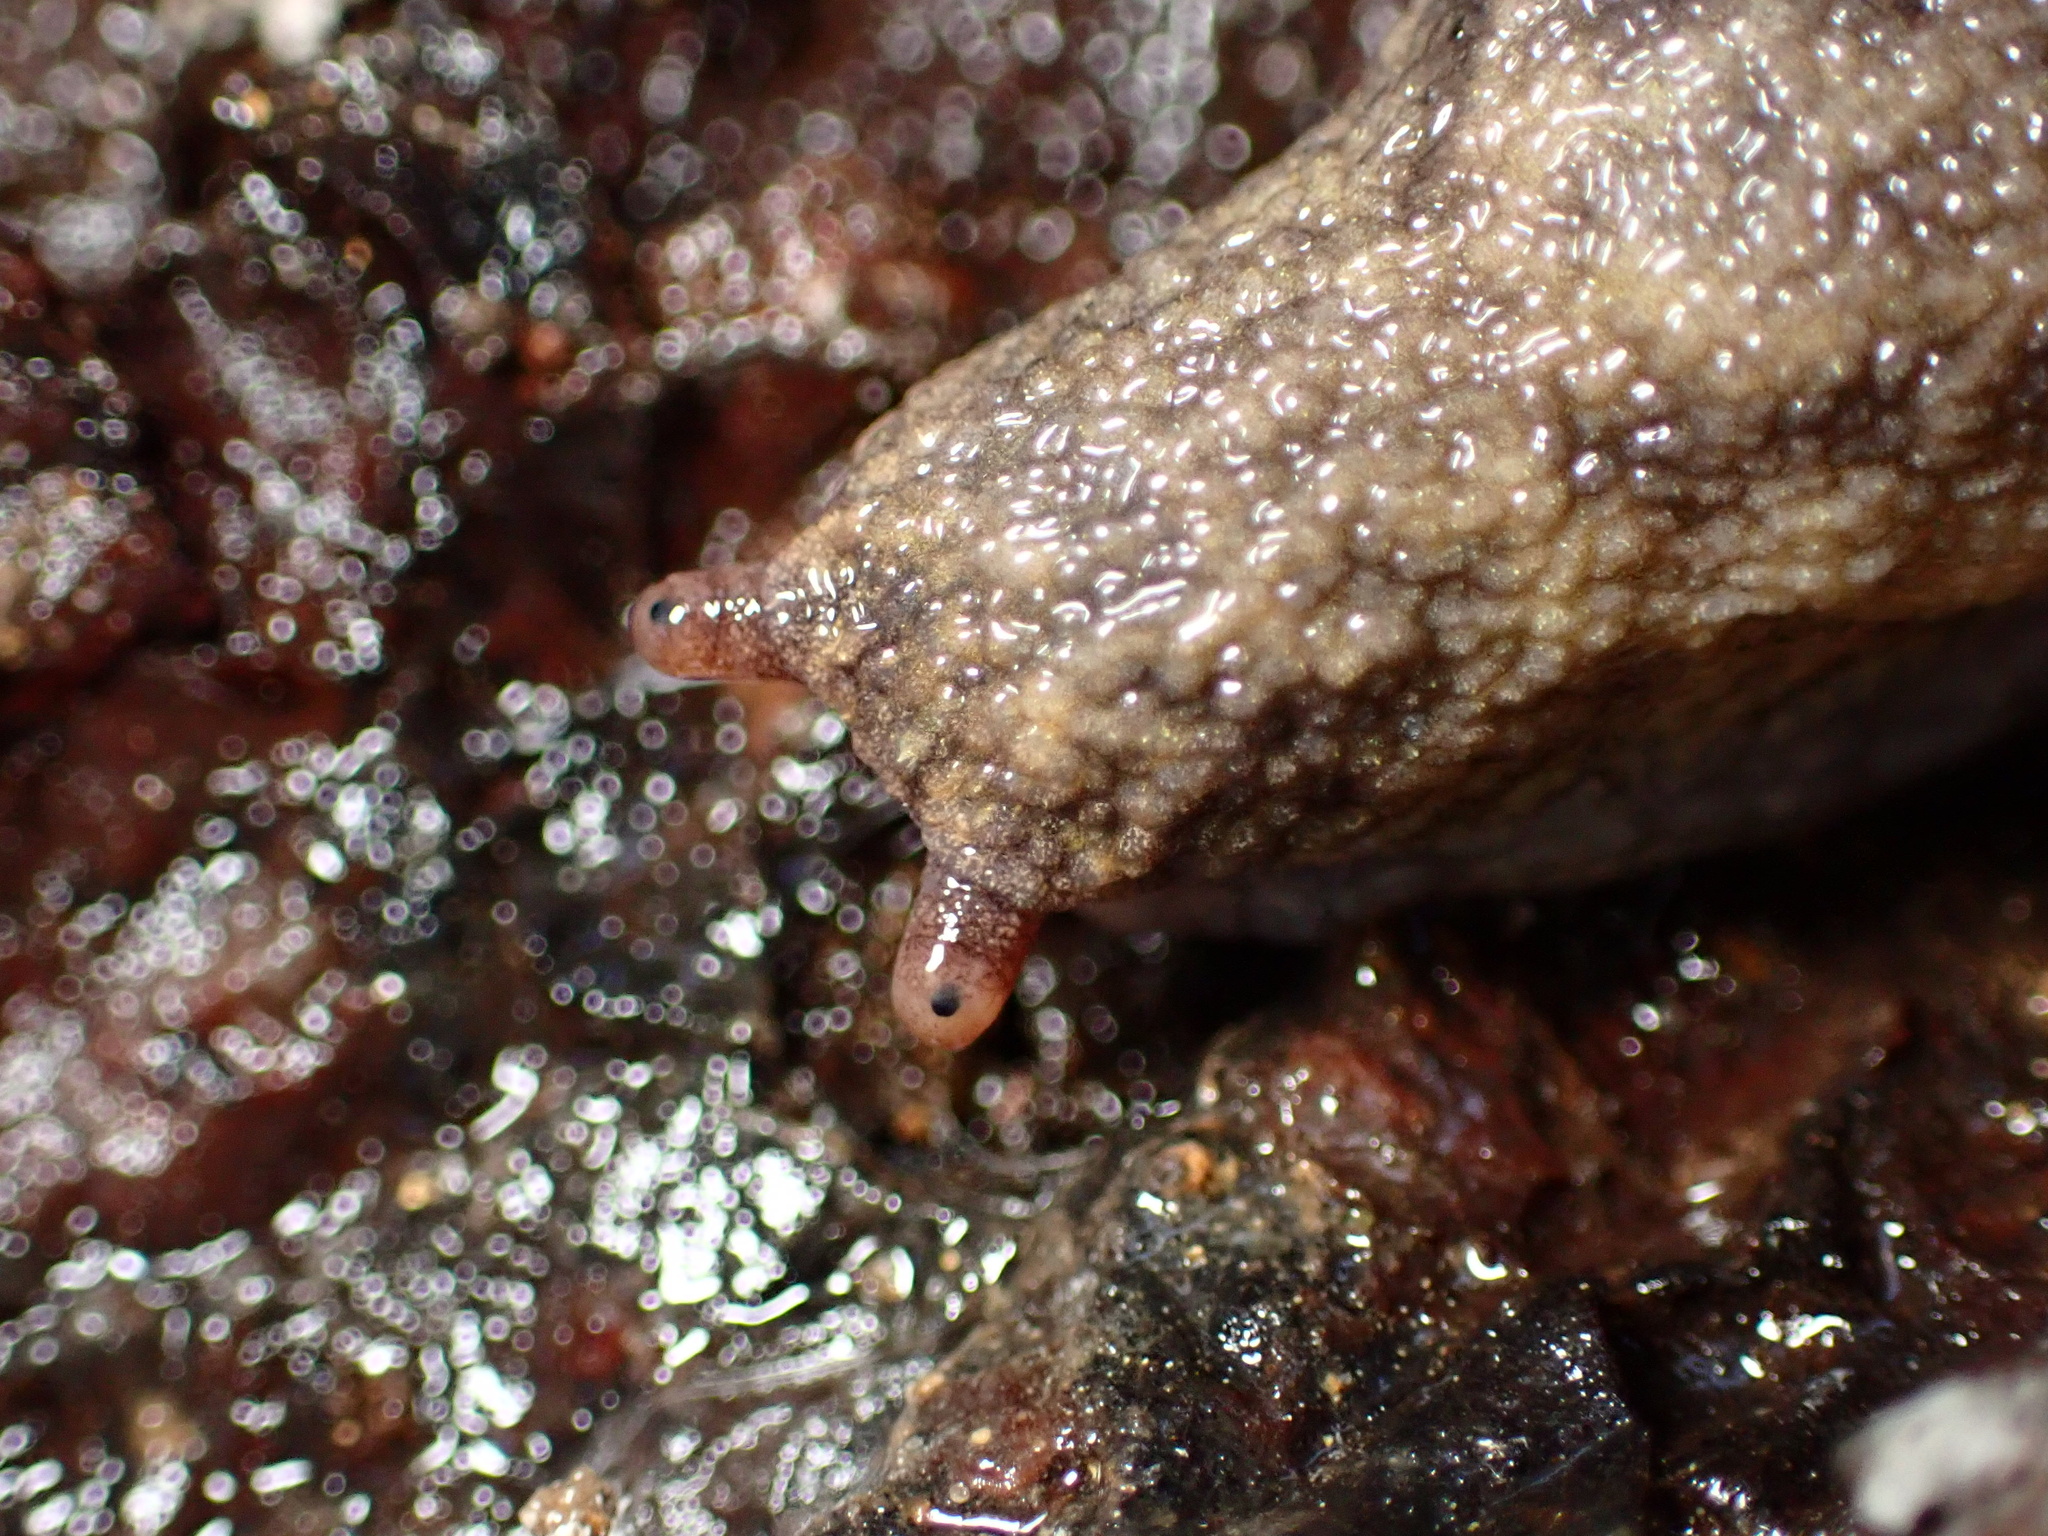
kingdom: Animalia
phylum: Mollusca
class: Gastropoda
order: Stylommatophora
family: Ariolimacidae
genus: Prophysaon
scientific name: Prophysaon andersonii
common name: Reticulate taildropper
